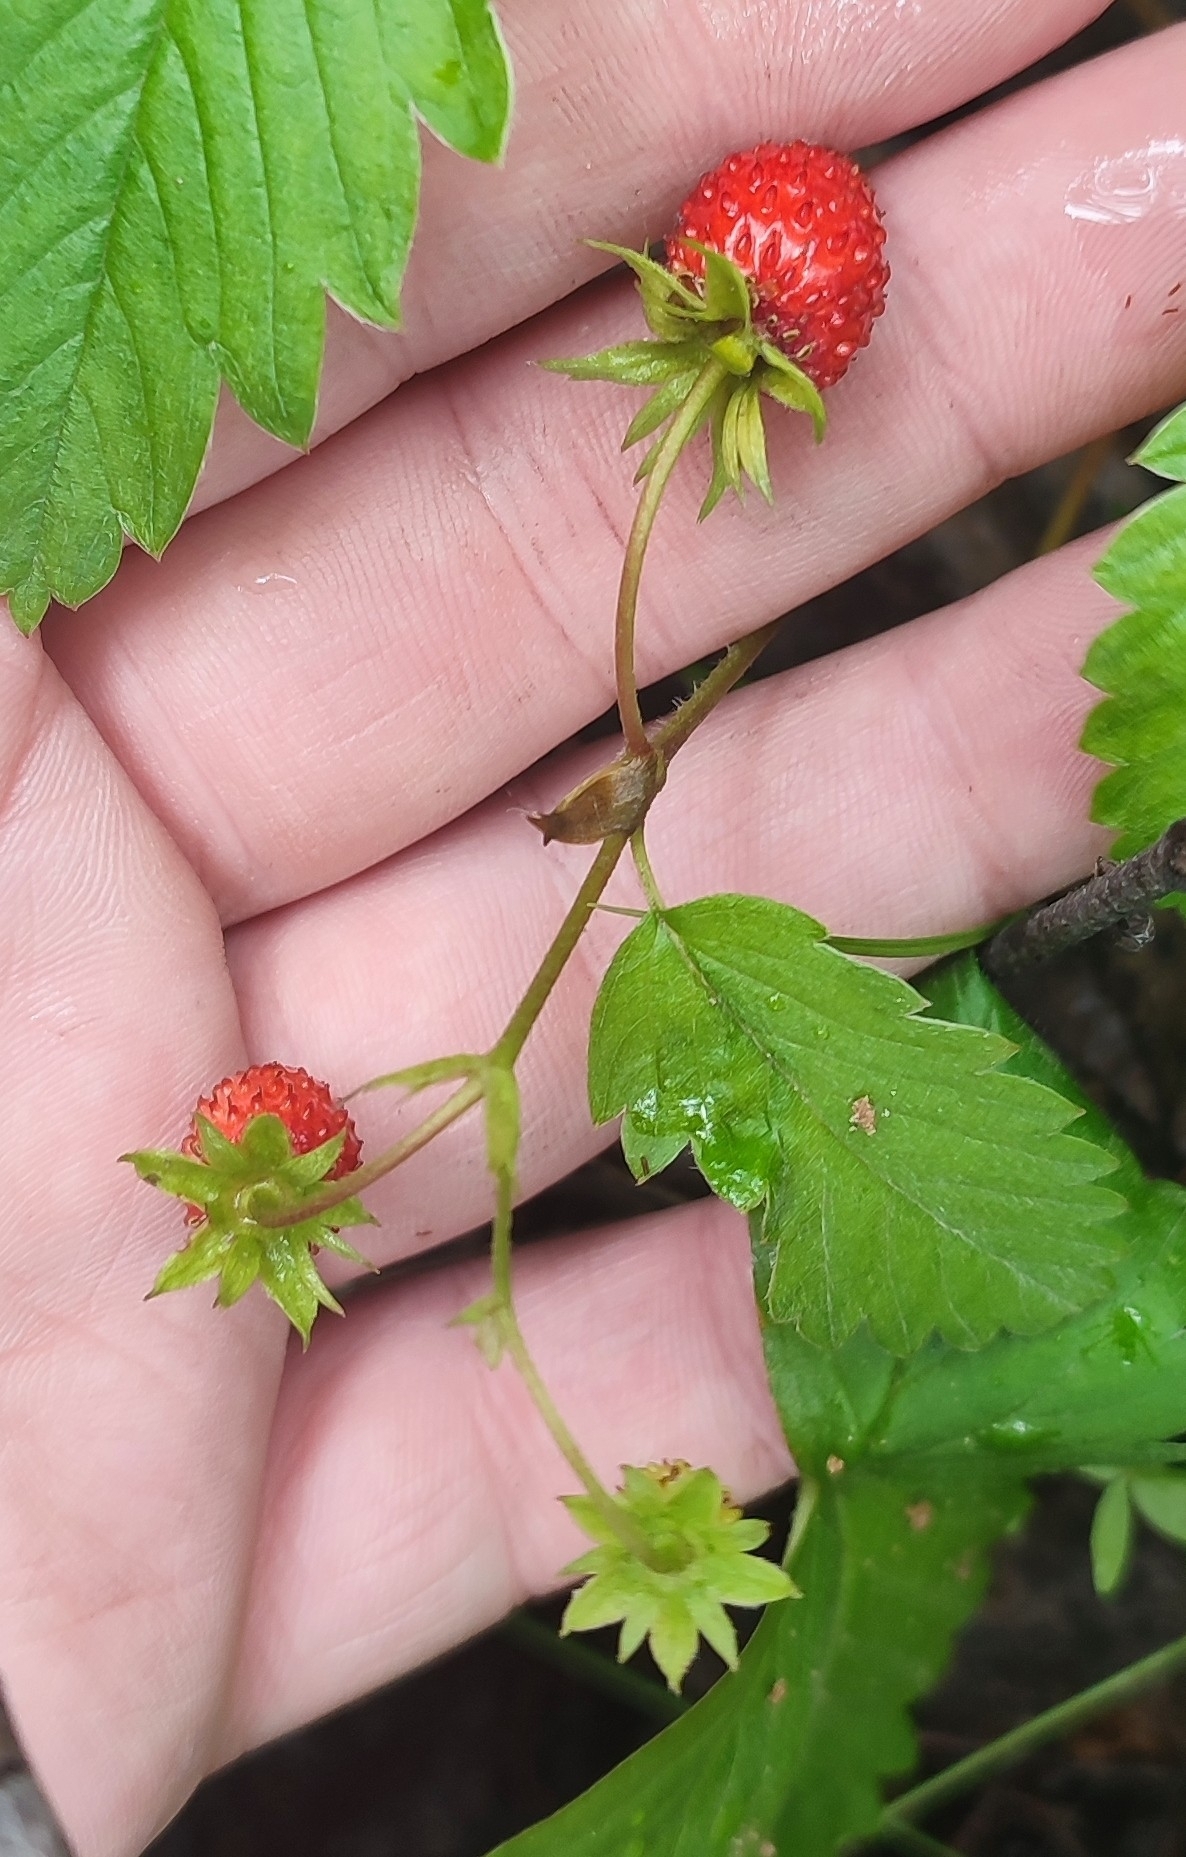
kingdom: Plantae
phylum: Tracheophyta
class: Magnoliopsida
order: Rosales
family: Rosaceae
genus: Fragaria
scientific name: Fragaria vesca
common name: Wild strawberry
